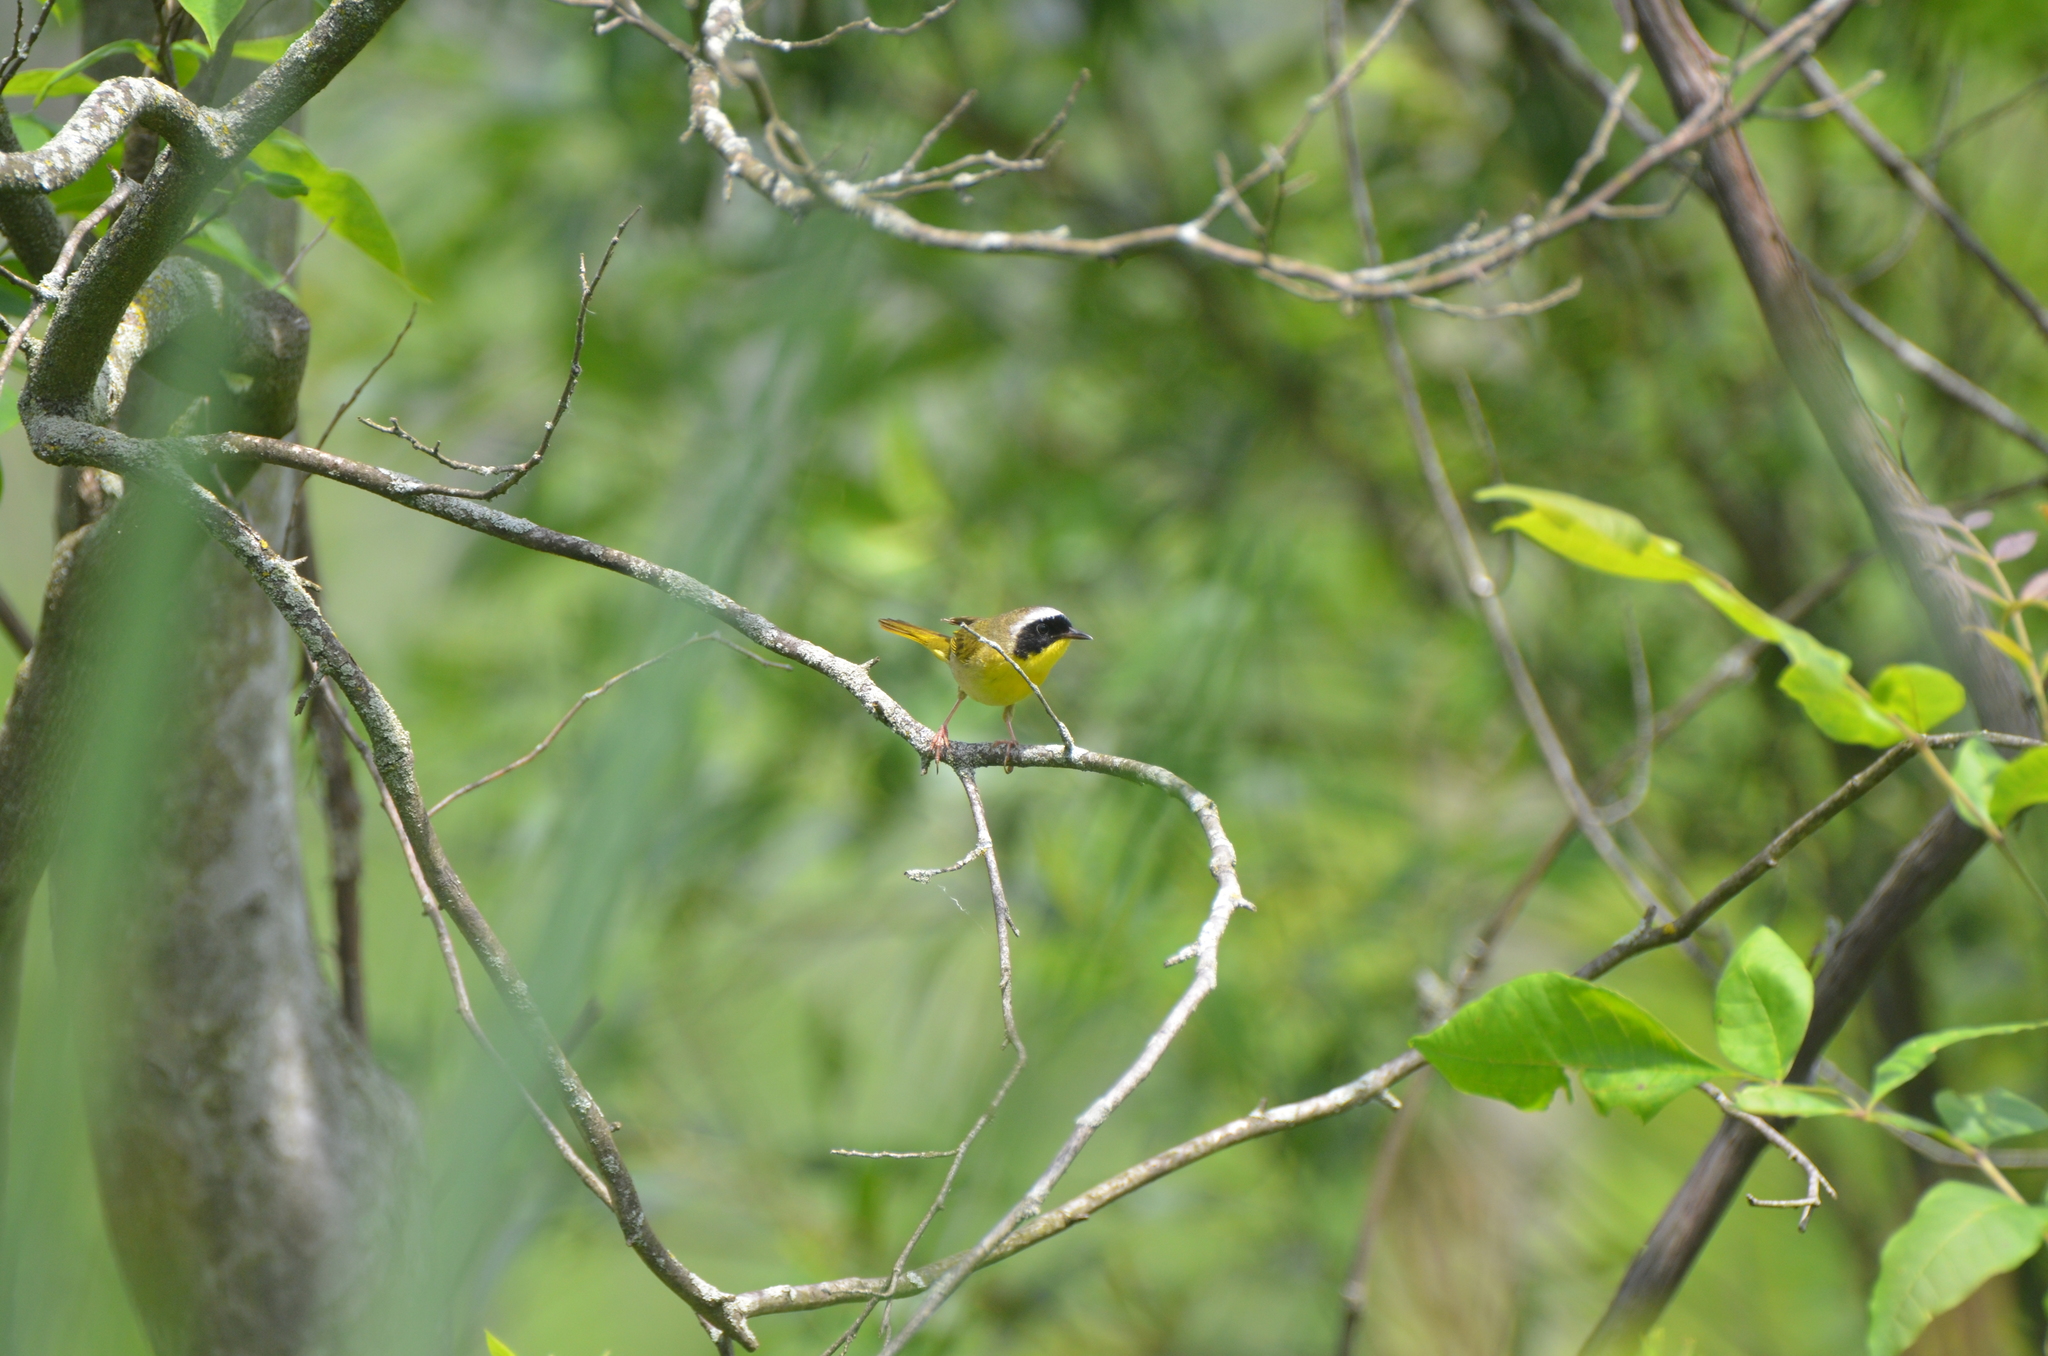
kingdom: Animalia
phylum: Chordata
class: Aves
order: Passeriformes
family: Parulidae
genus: Geothlypis
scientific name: Geothlypis trichas
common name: Common yellowthroat
